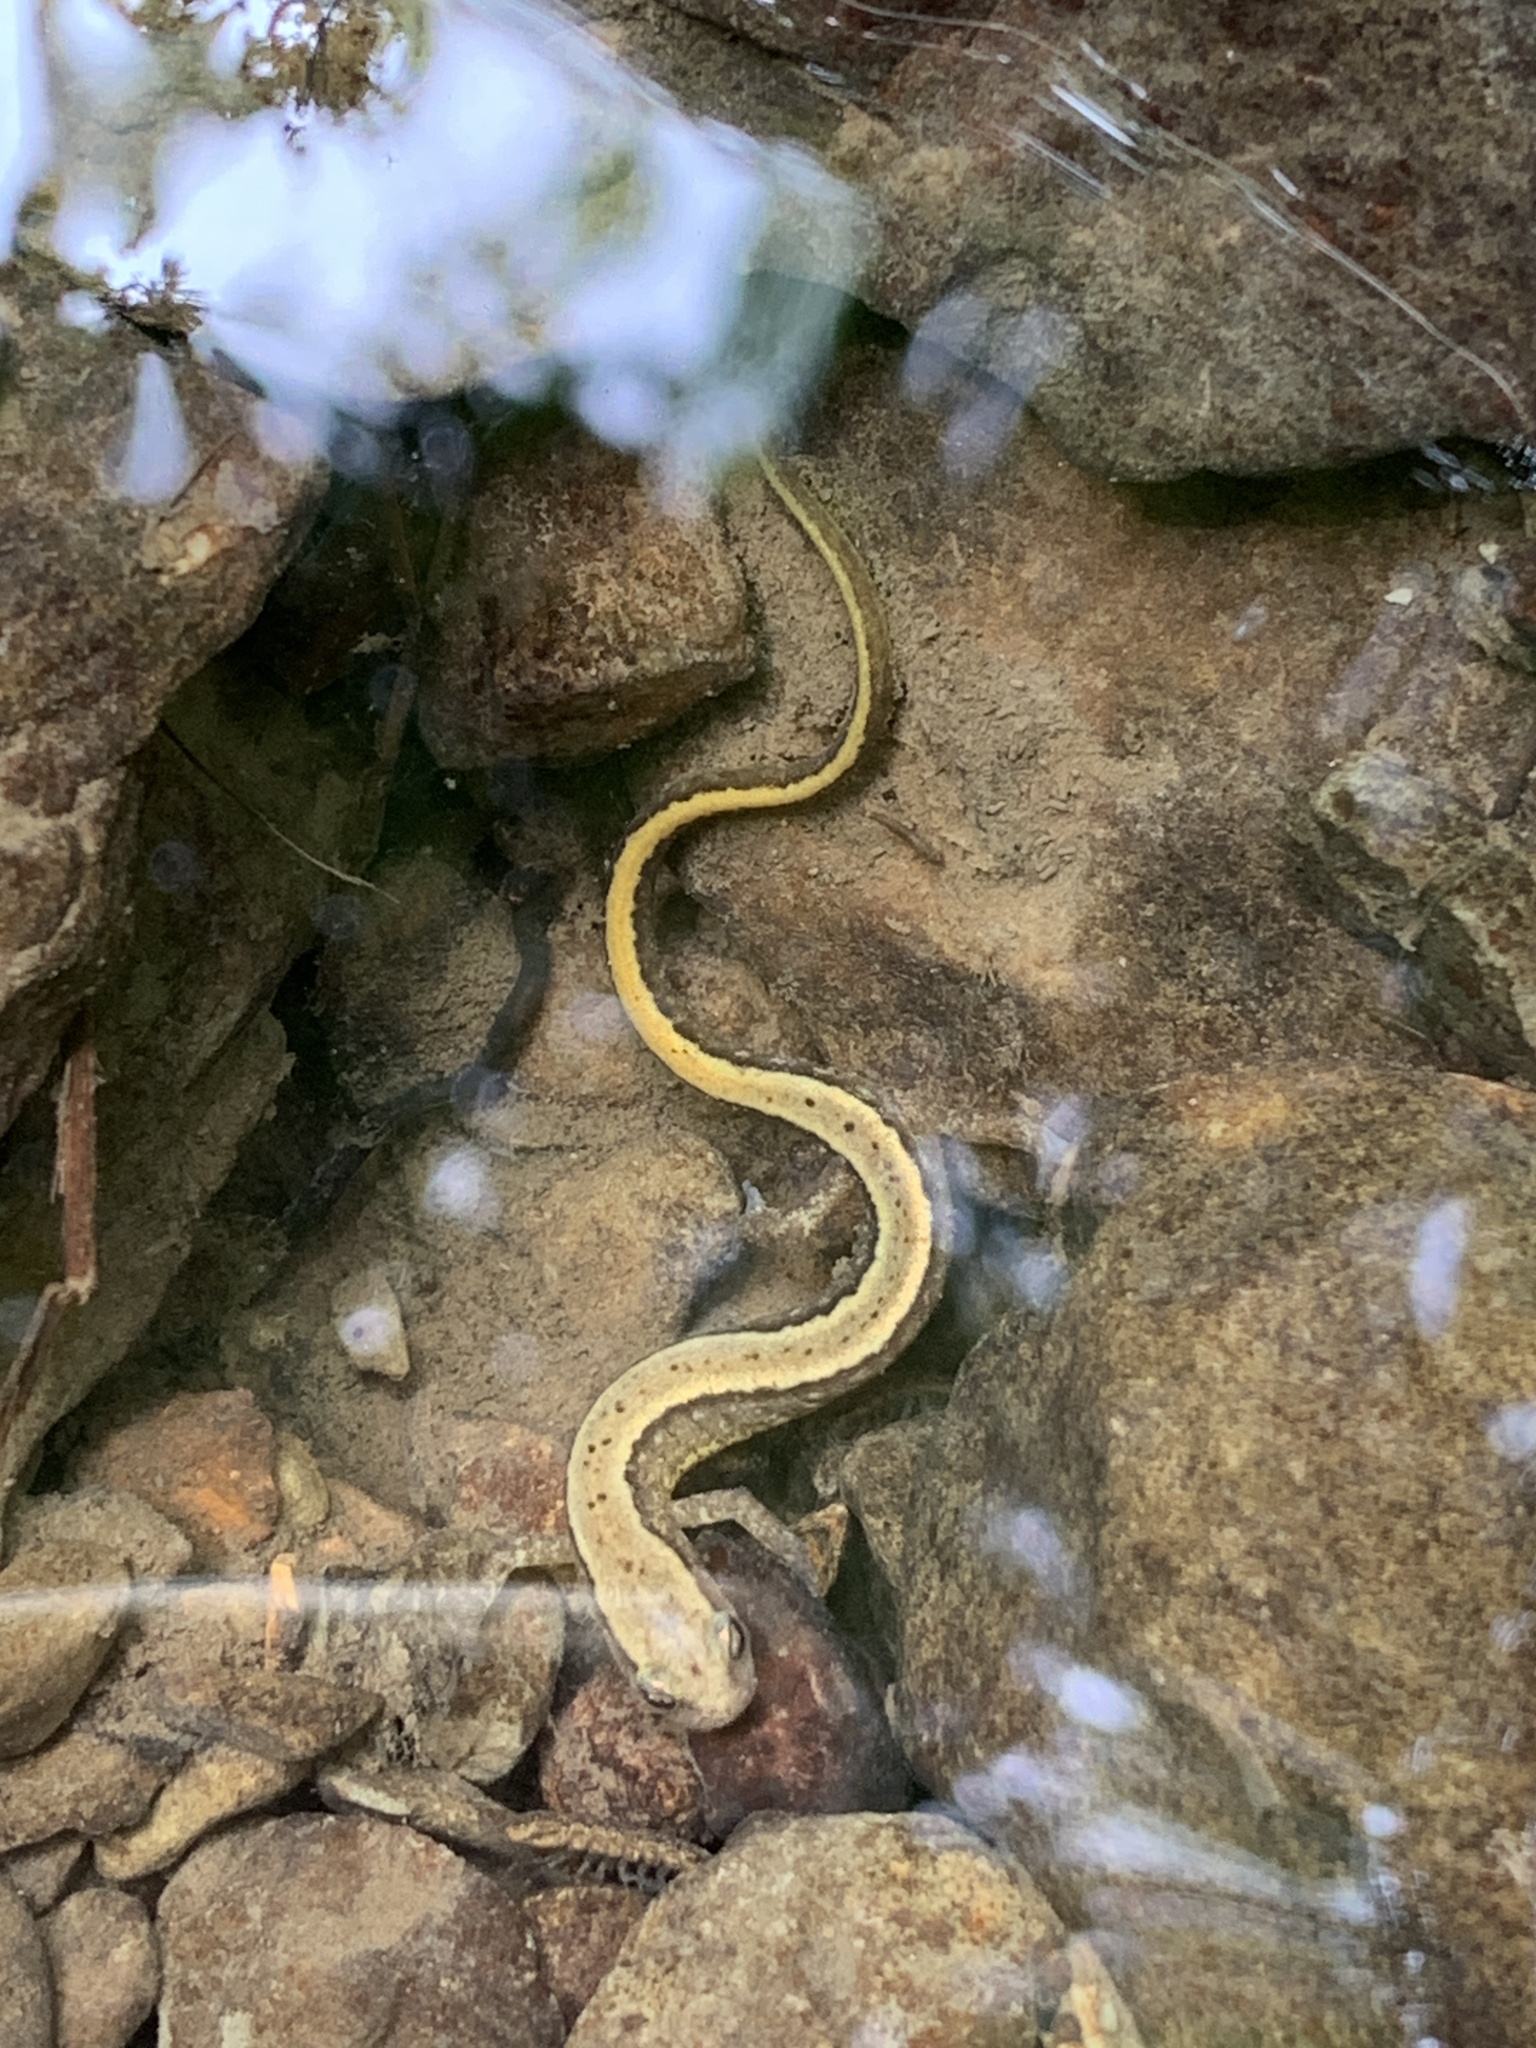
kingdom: Animalia
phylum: Chordata
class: Amphibia
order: Caudata
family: Plethodontidae
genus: Eurycea
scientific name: Eurycea cirrigera
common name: Southern two-lined salamander
